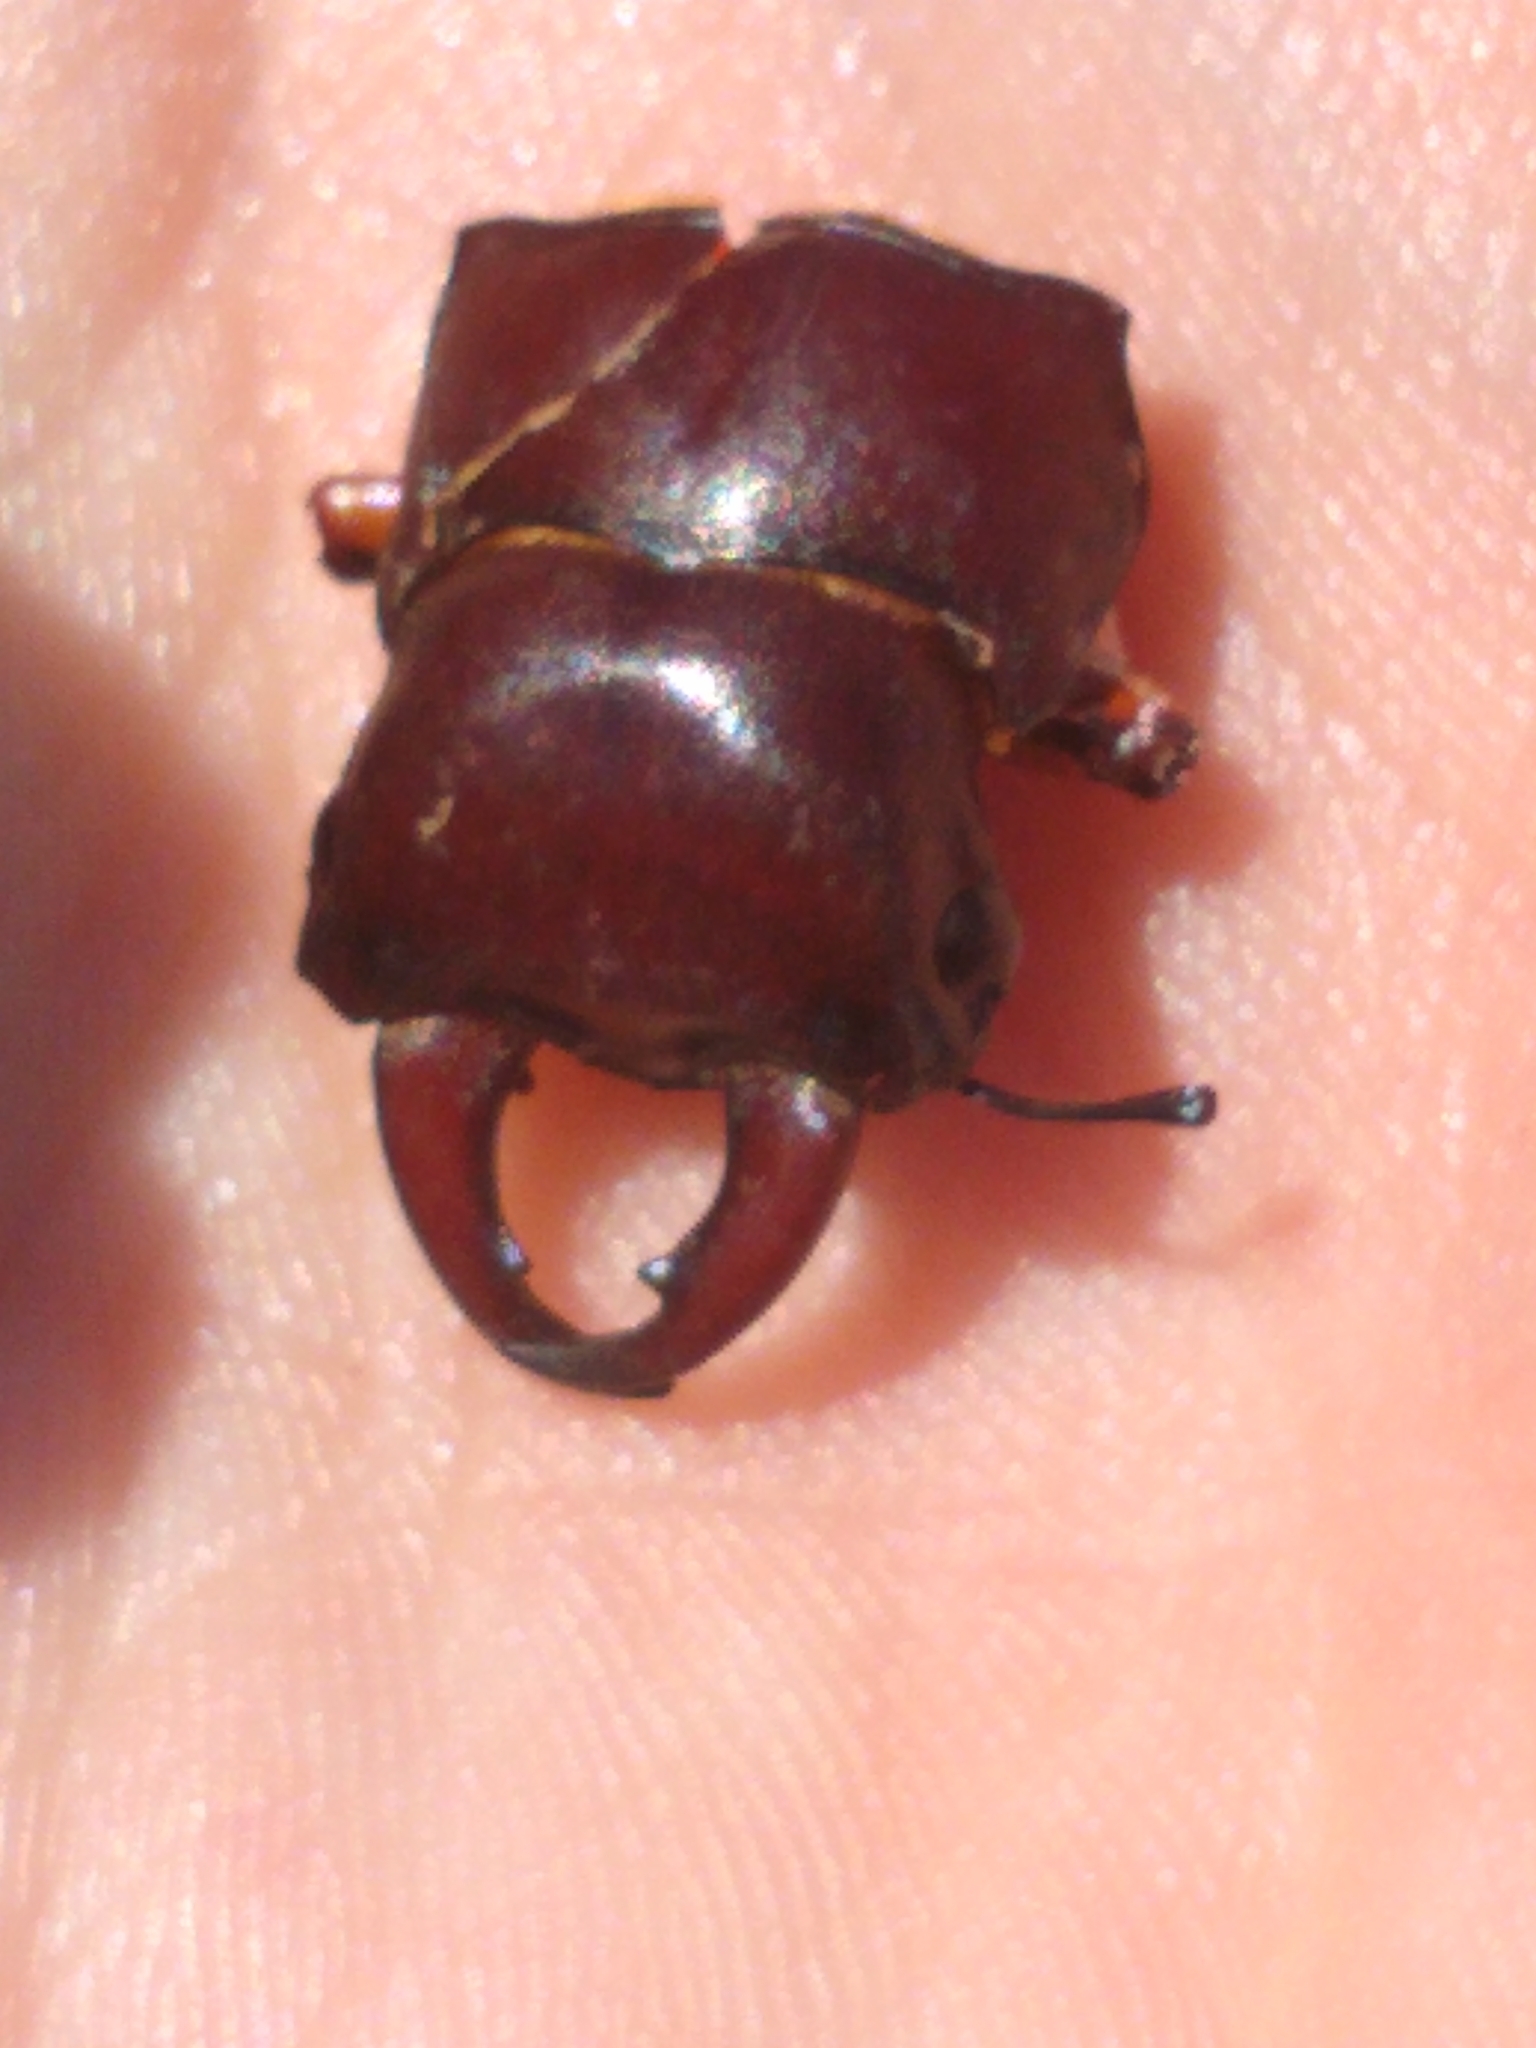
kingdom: Animalia
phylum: Arthropoda
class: Insecta
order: Coleoptera
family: Lucanidae
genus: Lucanus
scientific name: Lucanus capreolus
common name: Stag beetle
